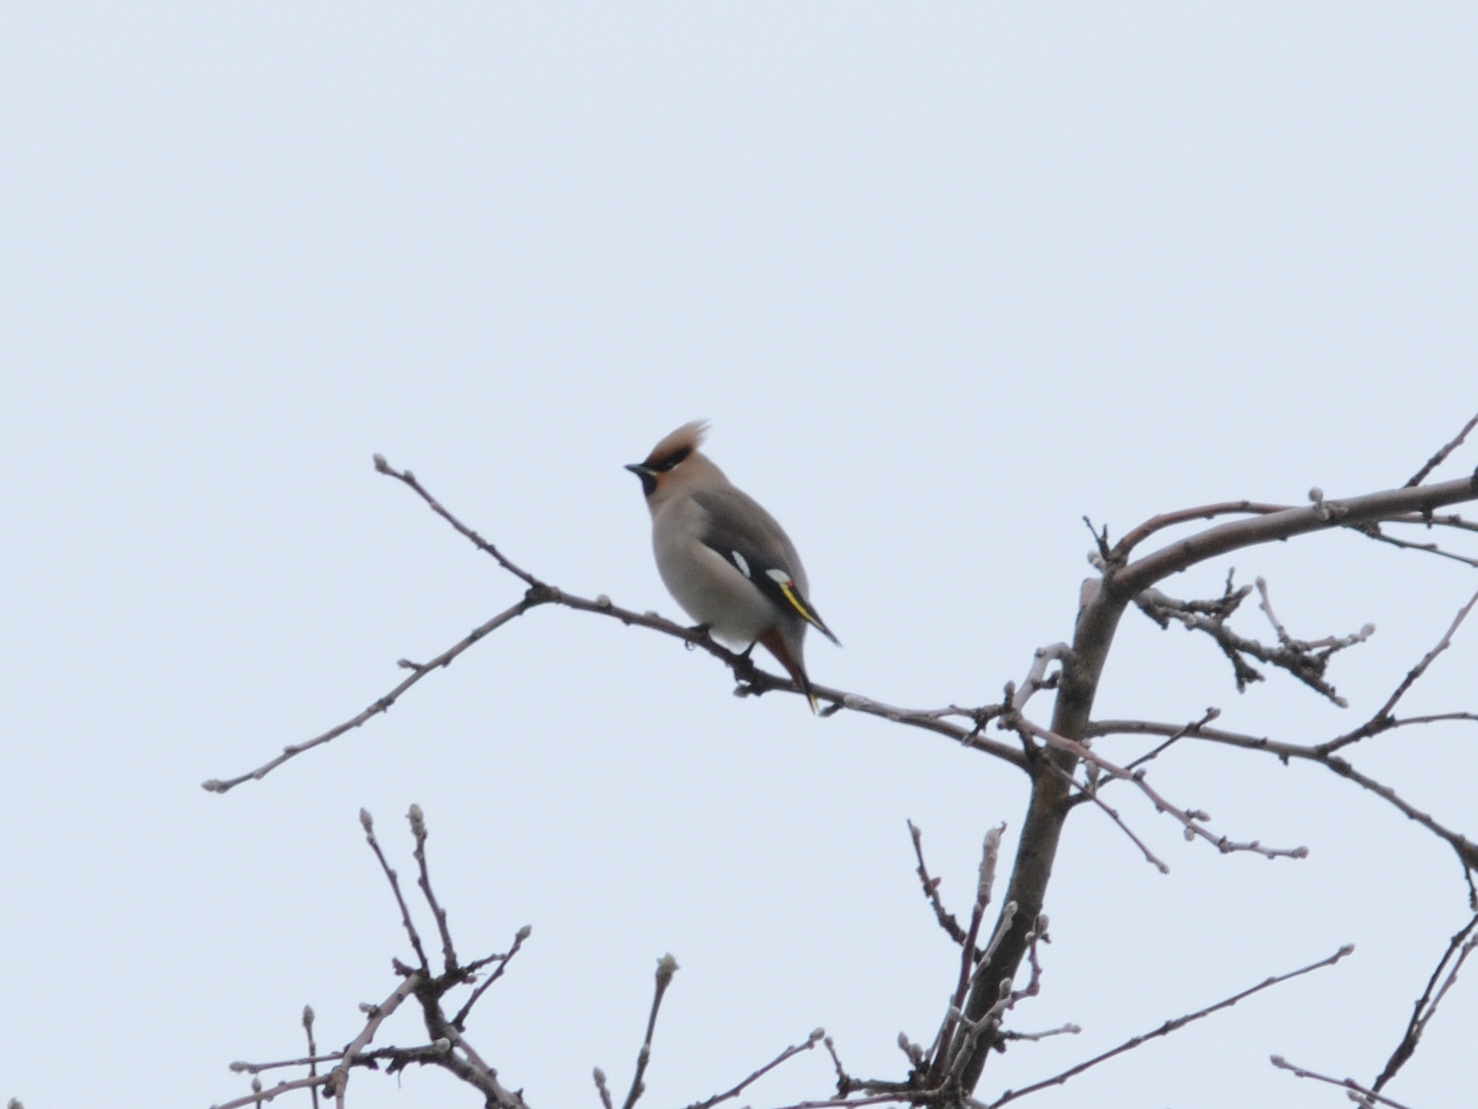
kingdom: Animalia
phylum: Chordata
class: Aves
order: Passeriformes
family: Bombycillidae
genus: Bombycilla
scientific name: Bombycilla garrulus
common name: Bohemian waxwing
